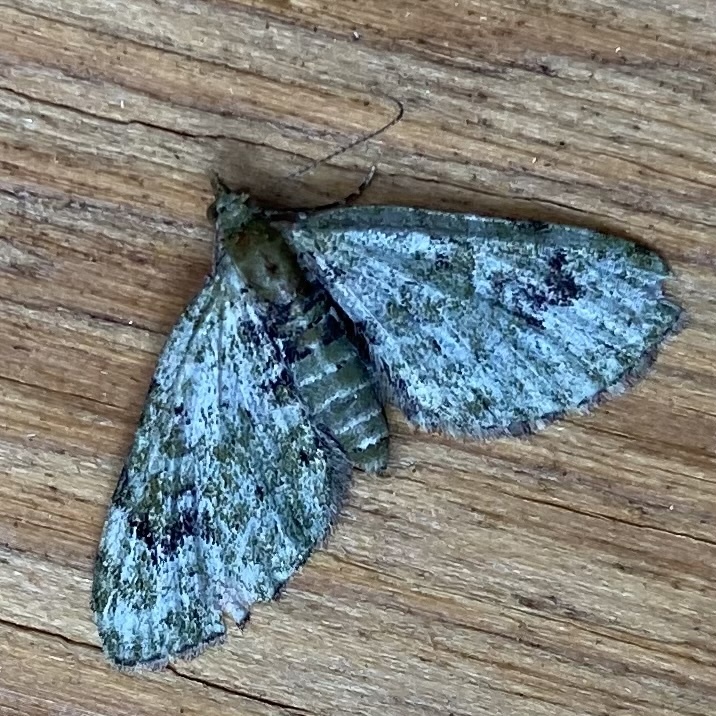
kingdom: Animalia
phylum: Arthropoda
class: Insecta
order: Lepidoptera
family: Geometridae
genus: Chloroclystis
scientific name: Chloroclystis v-ata
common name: V-pug
